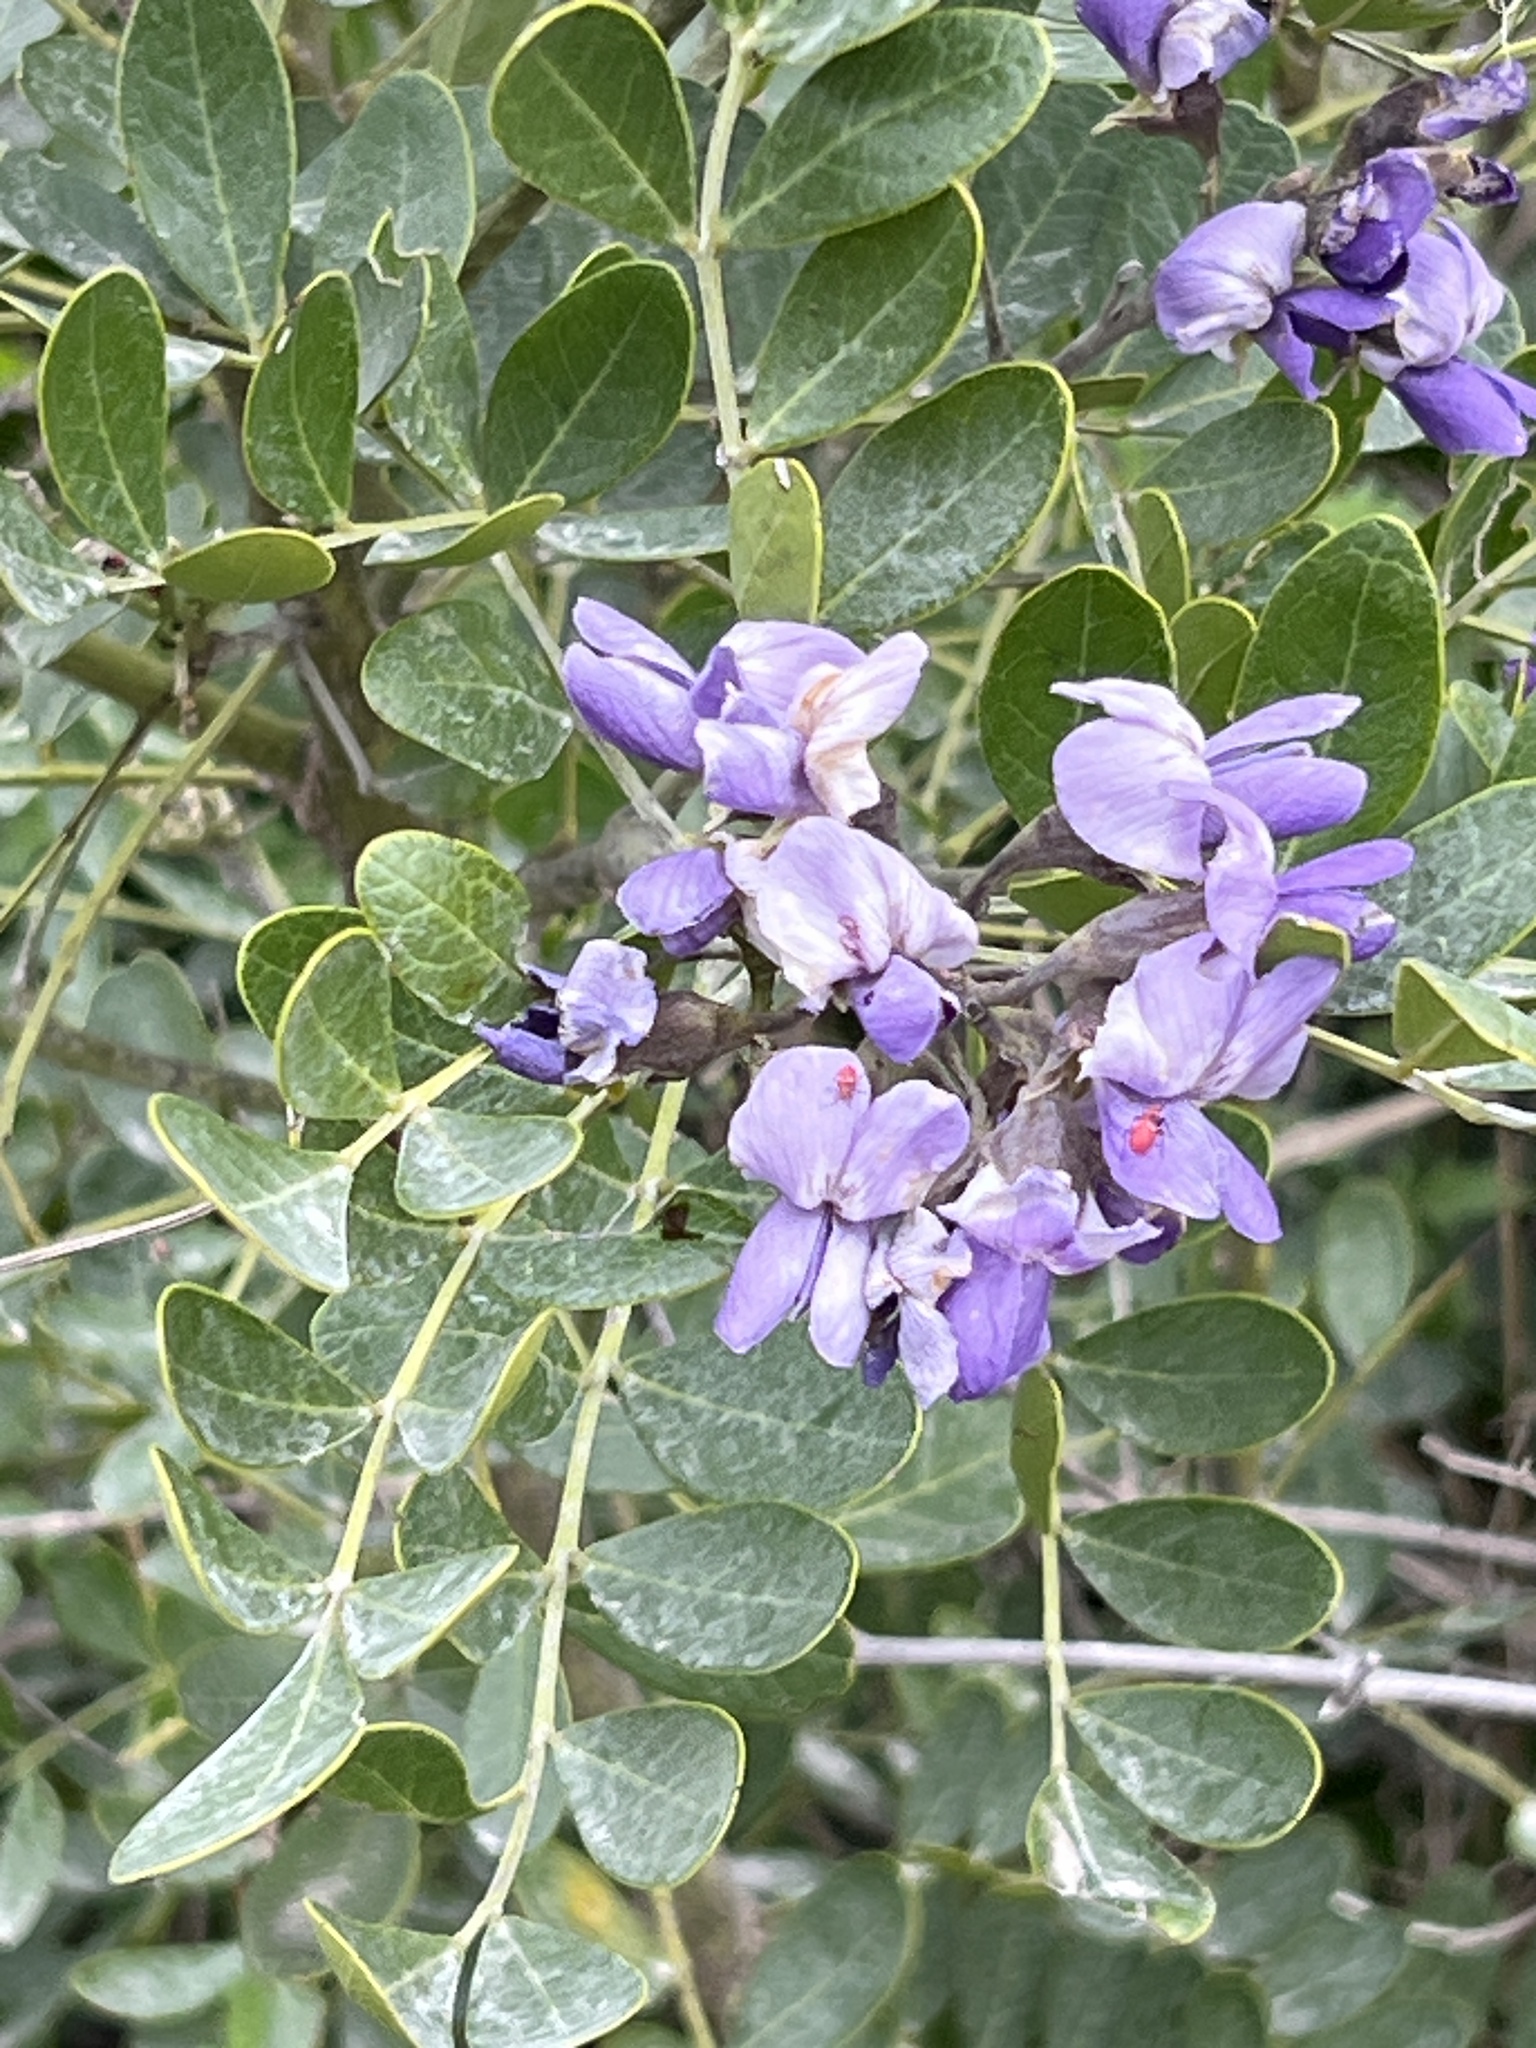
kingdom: Plantae
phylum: Tracheophyta
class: Magnoliopsida
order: Fabales
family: Fabaceae
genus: Dermatophyllum
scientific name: Dermatophyllum secundiflorum
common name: Texas-mountain-laurel
